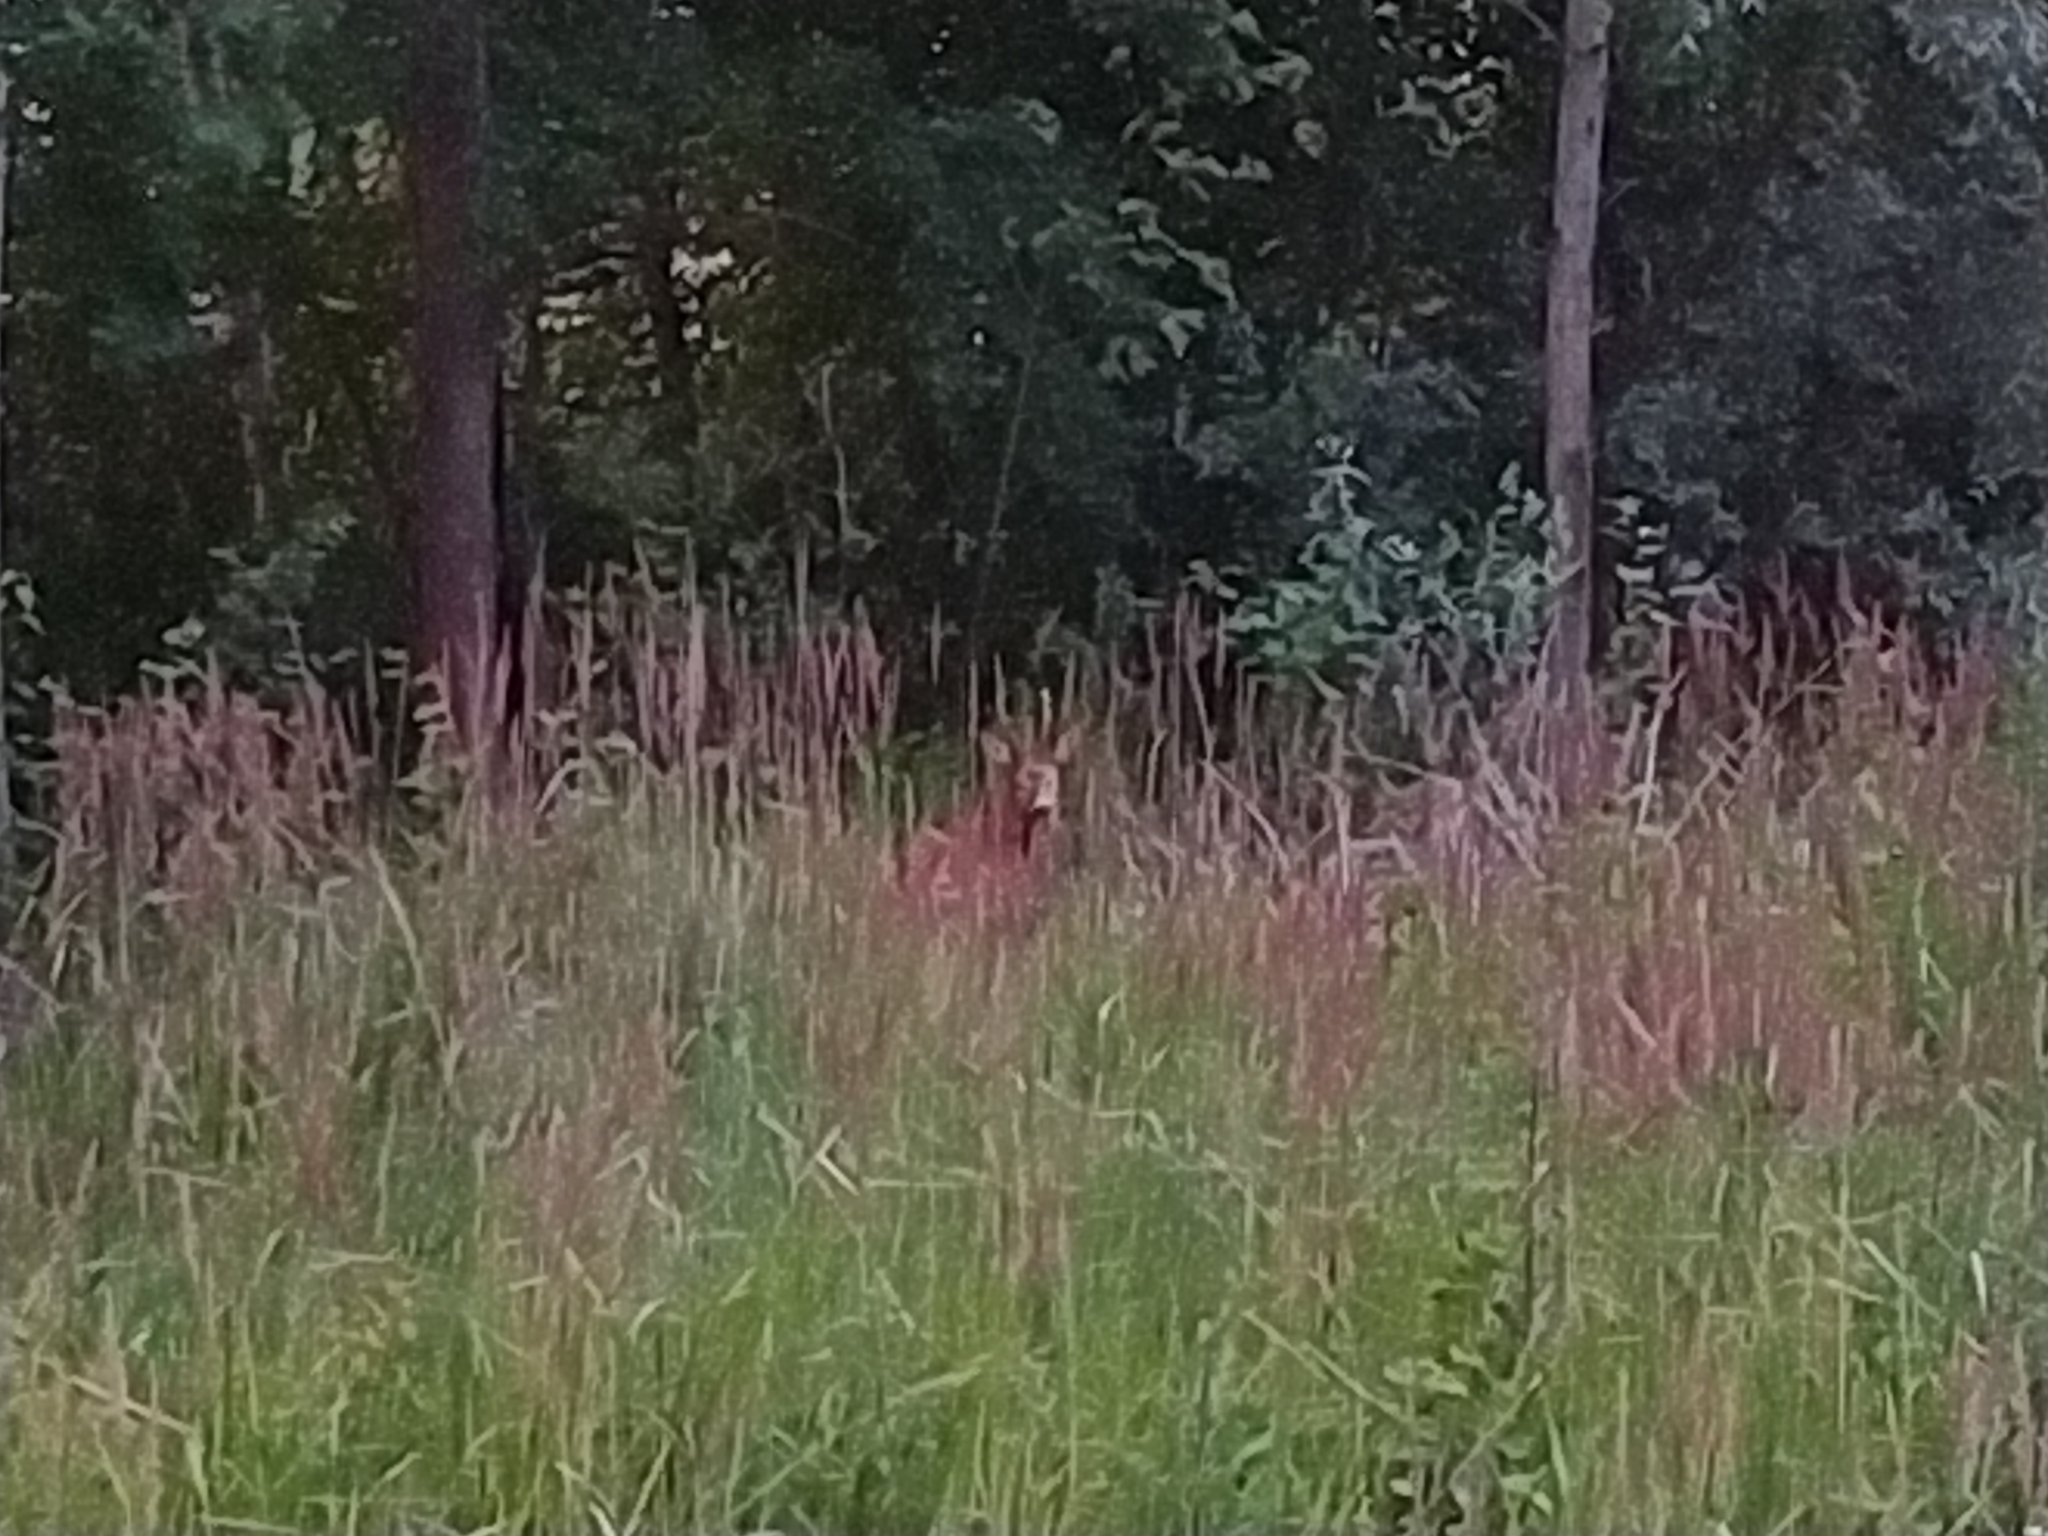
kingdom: Animalia
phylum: Chordata
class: Mammalia
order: Artiodactyla
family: Cervidae
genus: Capreolus
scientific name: Capreolus capreolus
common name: Western roe deer
